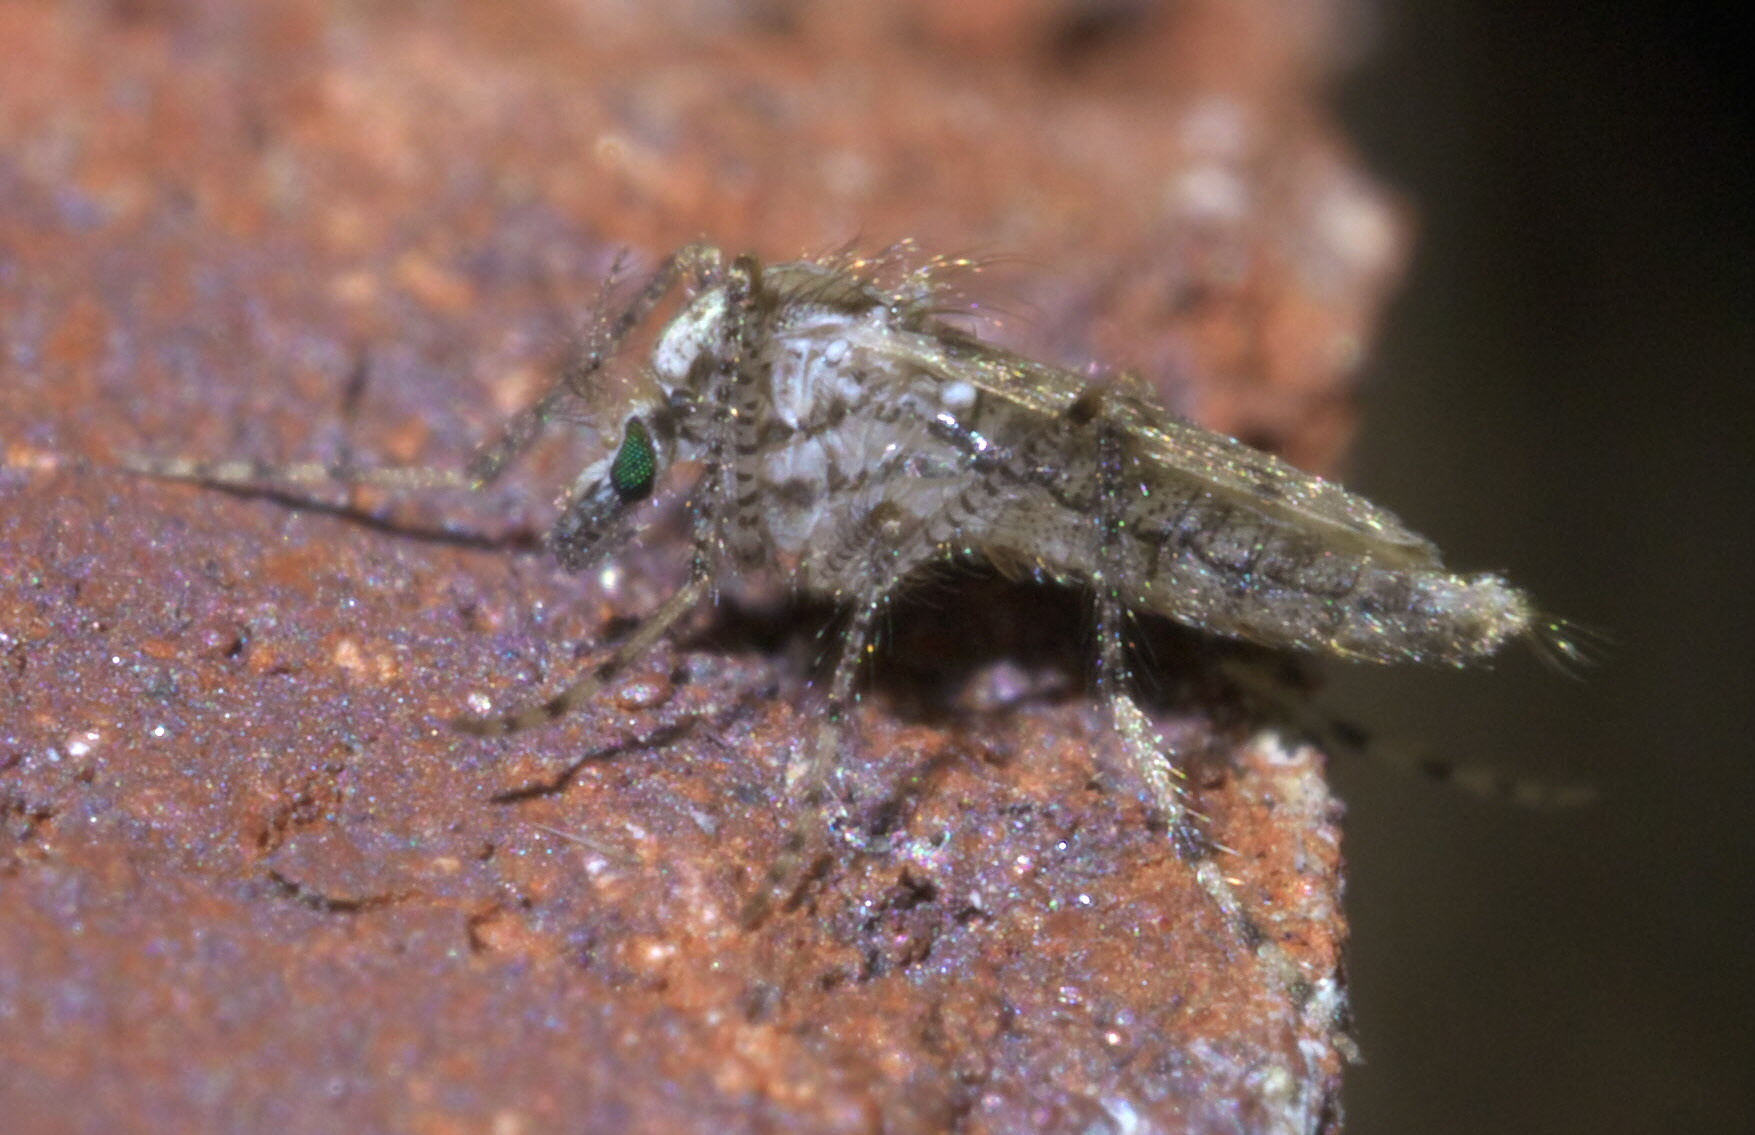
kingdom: Animalia
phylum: Arthropoda
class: Insecta
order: Diptera
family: Chaoboridae
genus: Chaoborus
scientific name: Chaoborus punctipennis
